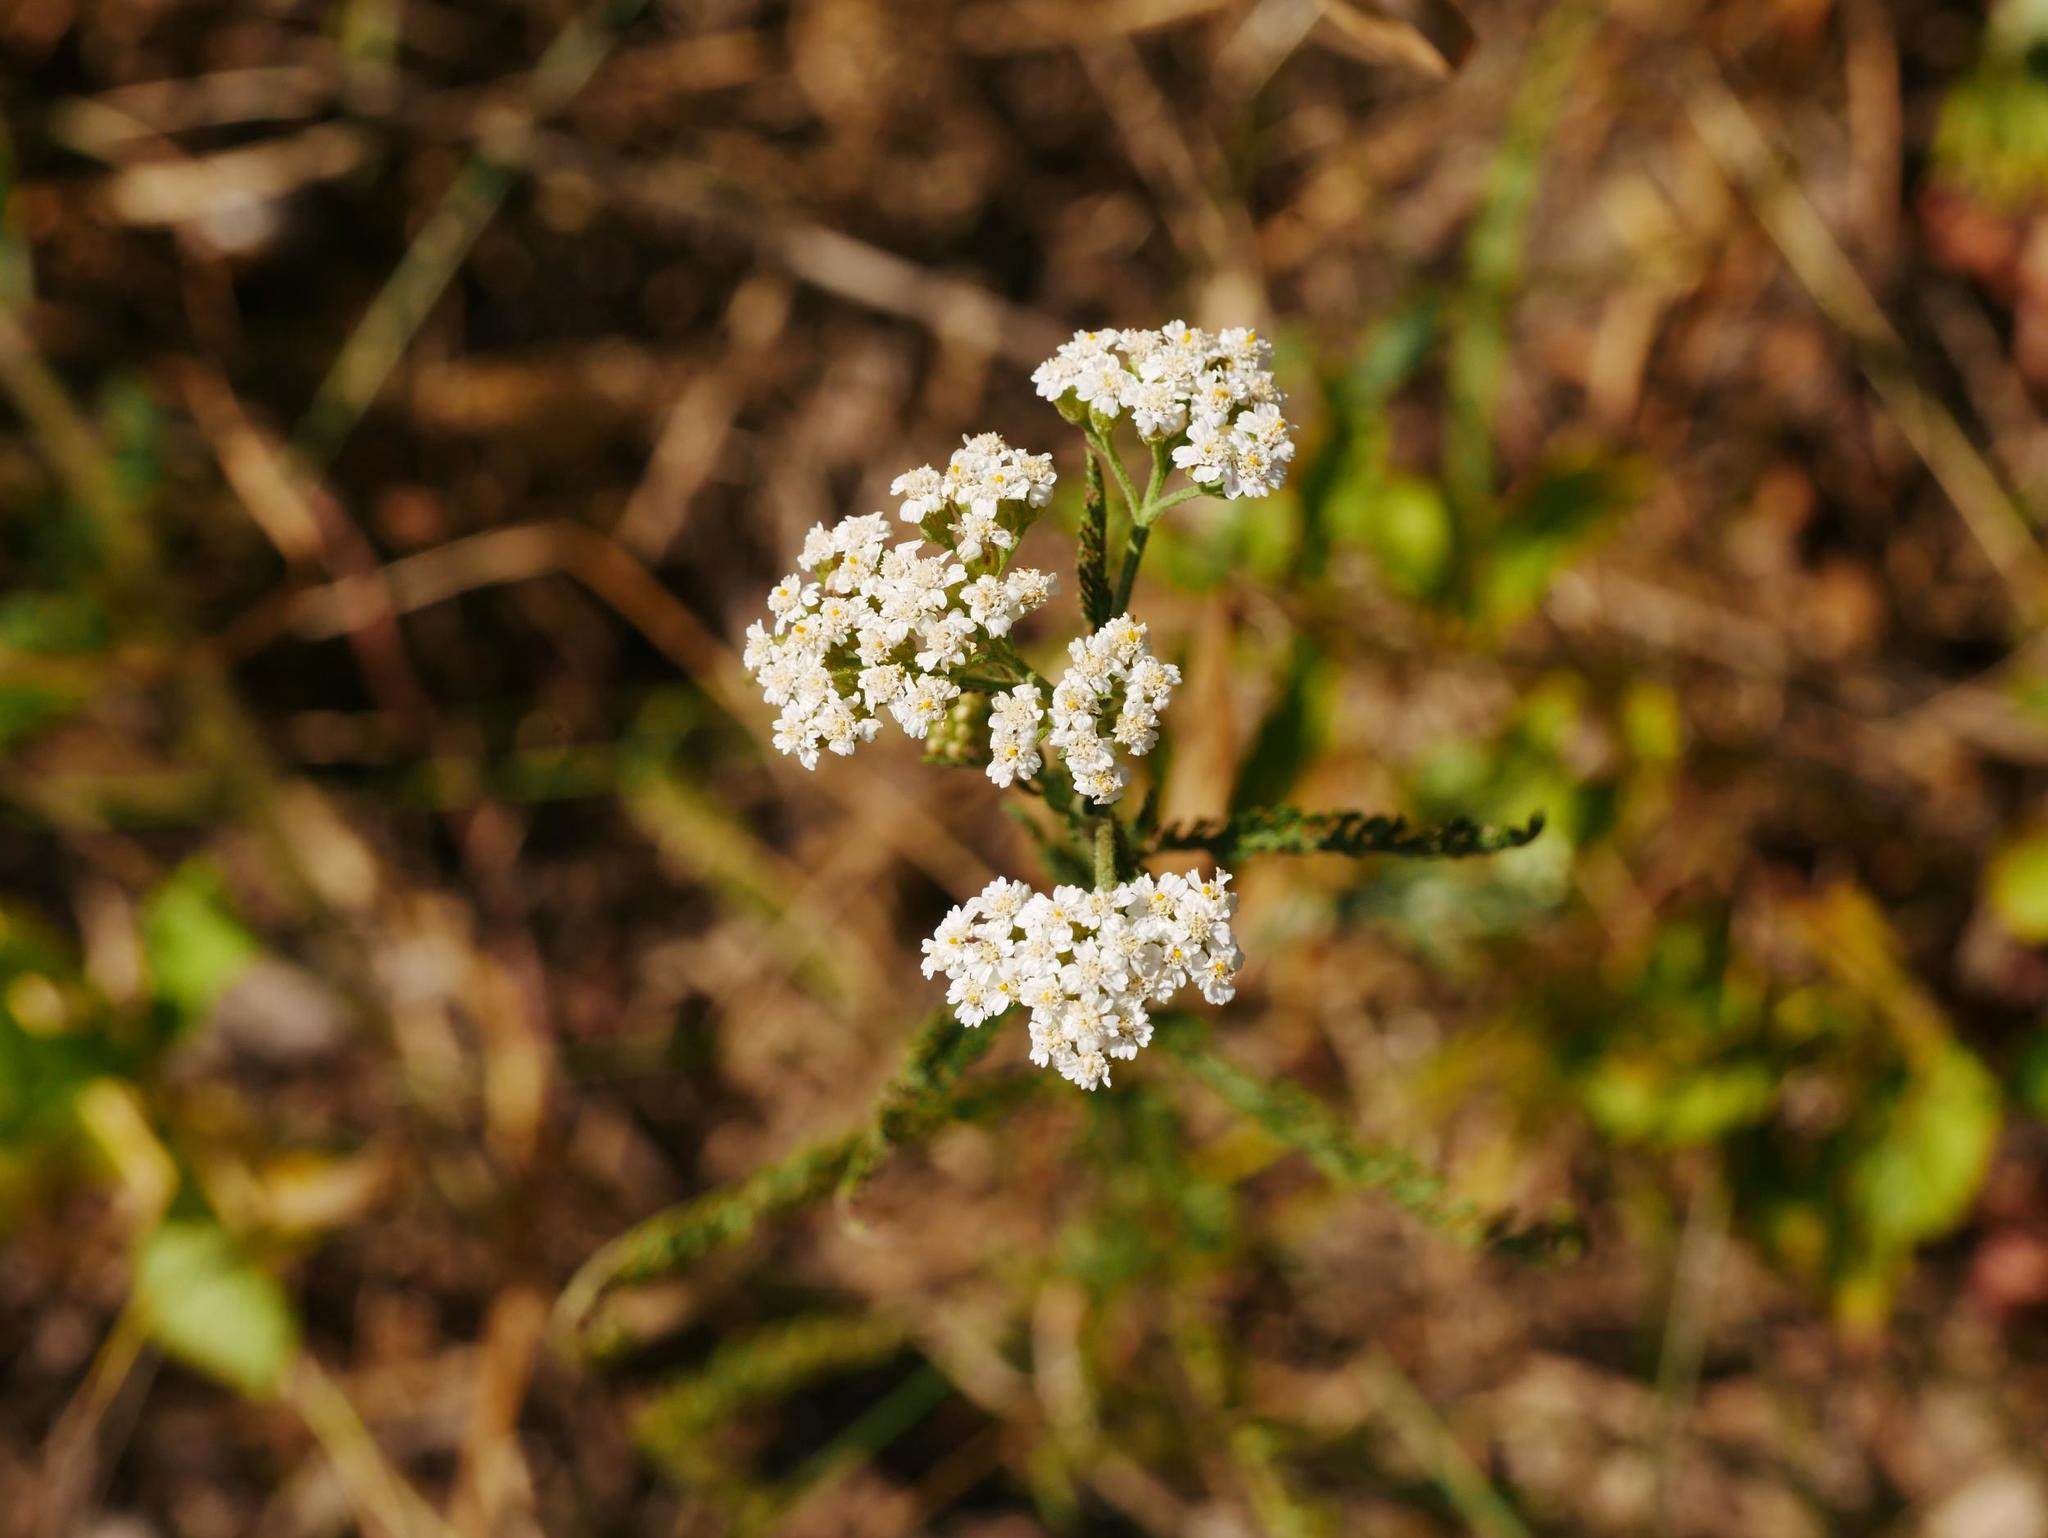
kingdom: Plantae
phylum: Tracheophyta
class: Magnoliopsida
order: Asterales
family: Asteraceae
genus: Achillea
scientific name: Achillea millefolium
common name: Yarrow
